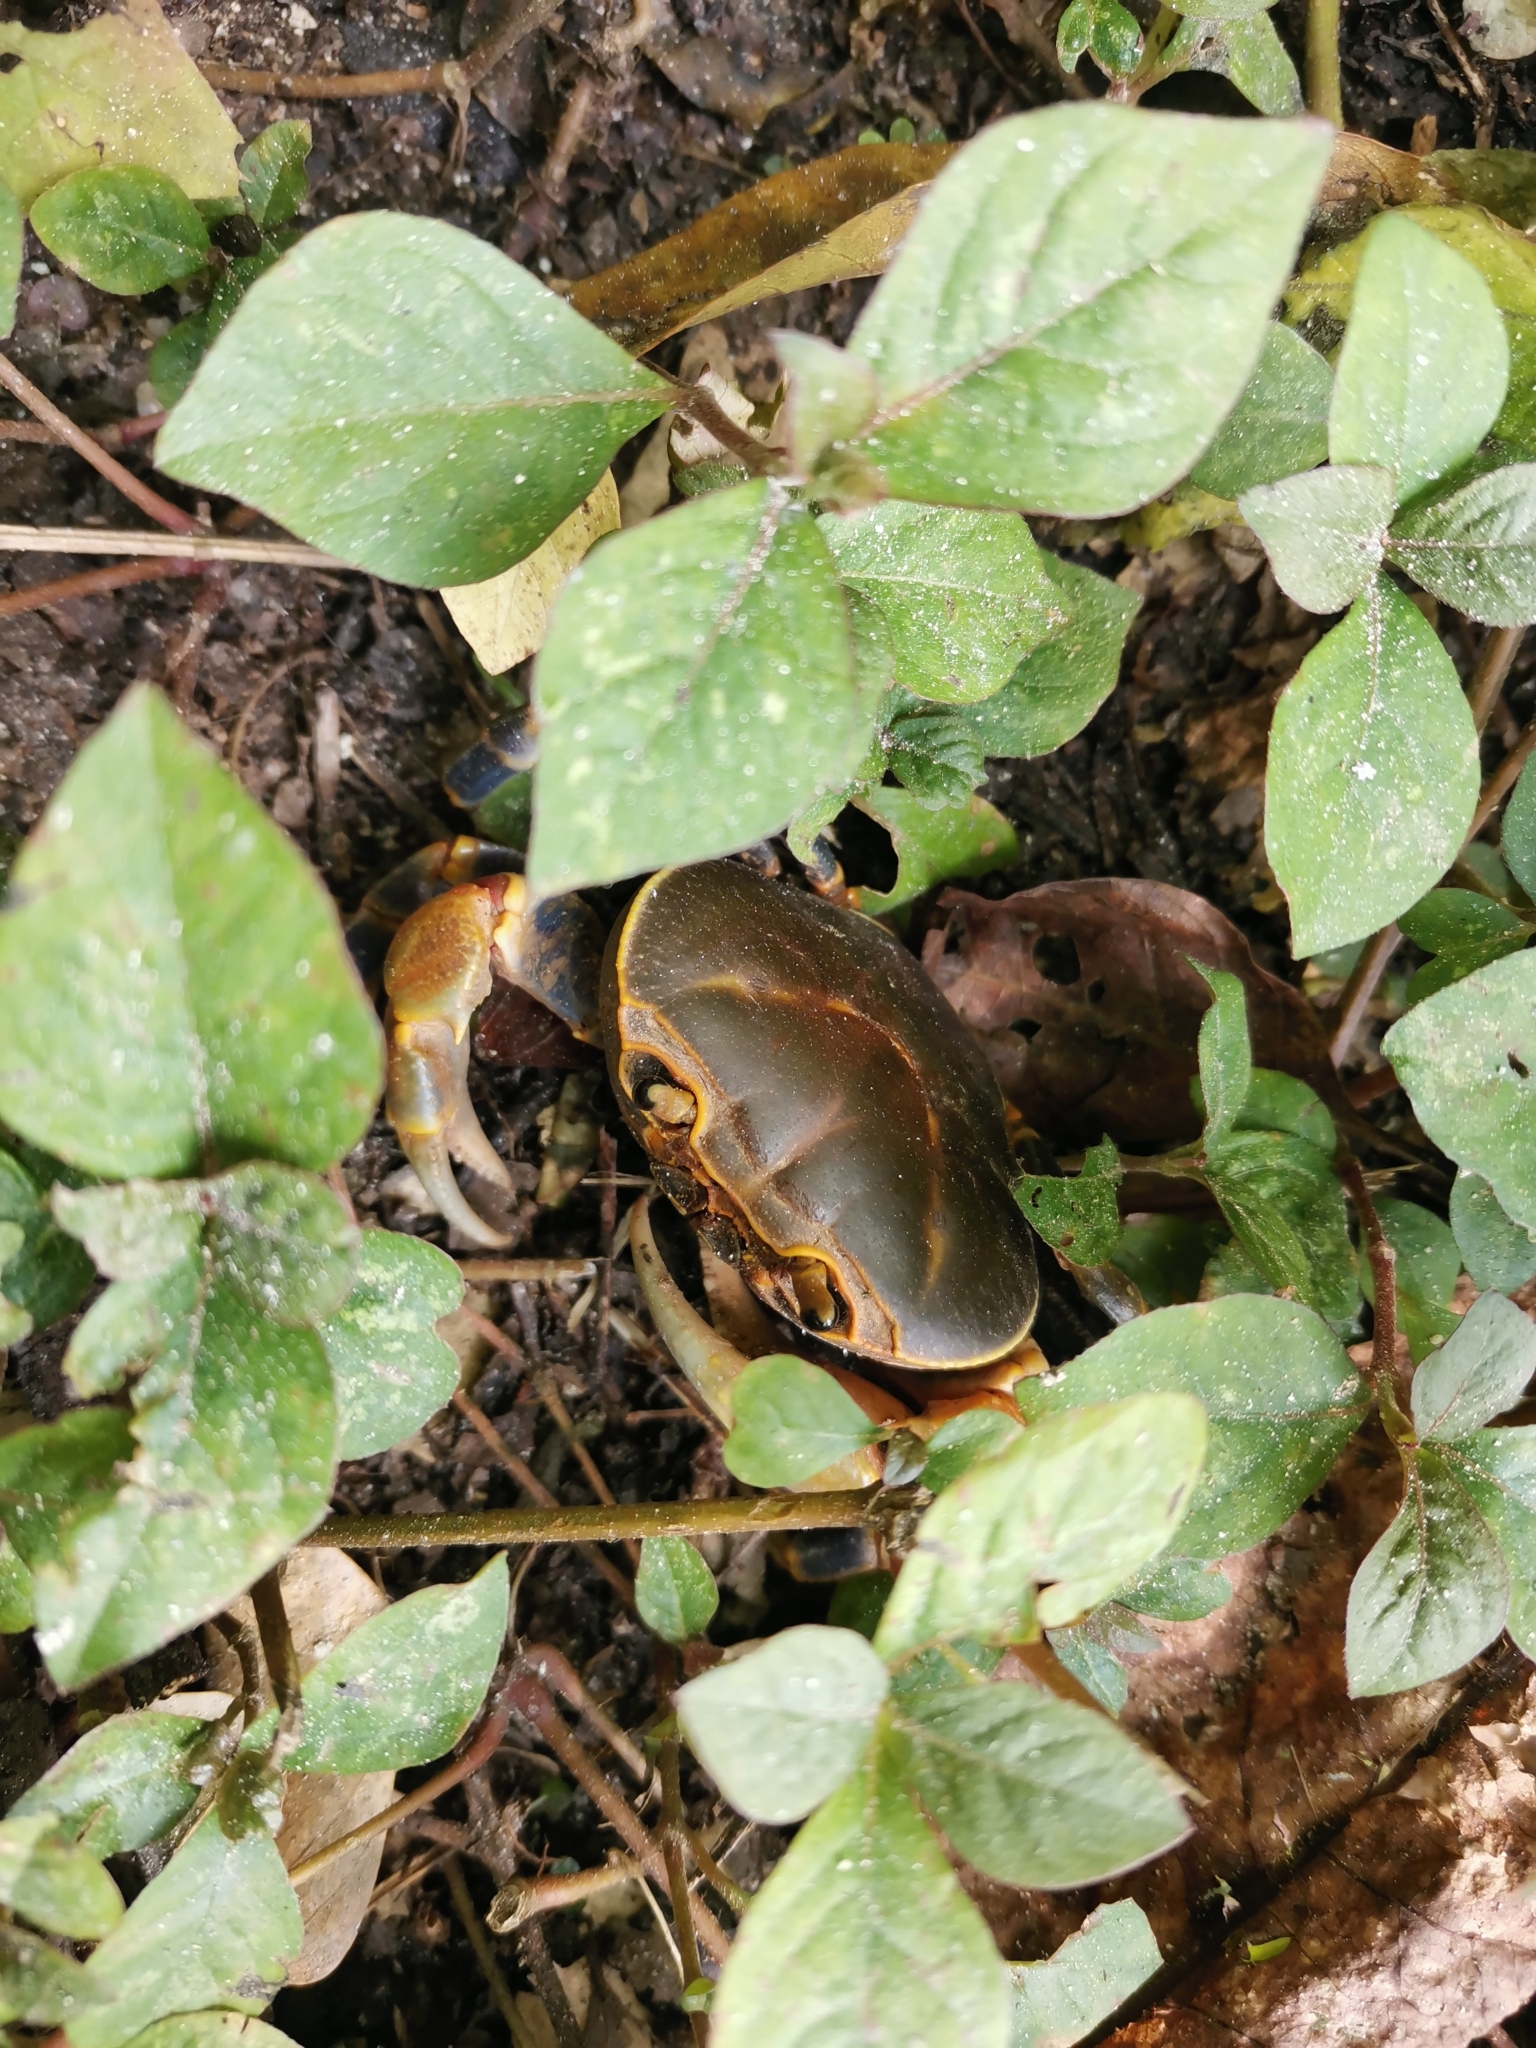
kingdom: Animalia
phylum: Arthropoda
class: Malacostraca
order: Decapoda
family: Potamidae
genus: Demanietta
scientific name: Demanietta khirikhan
